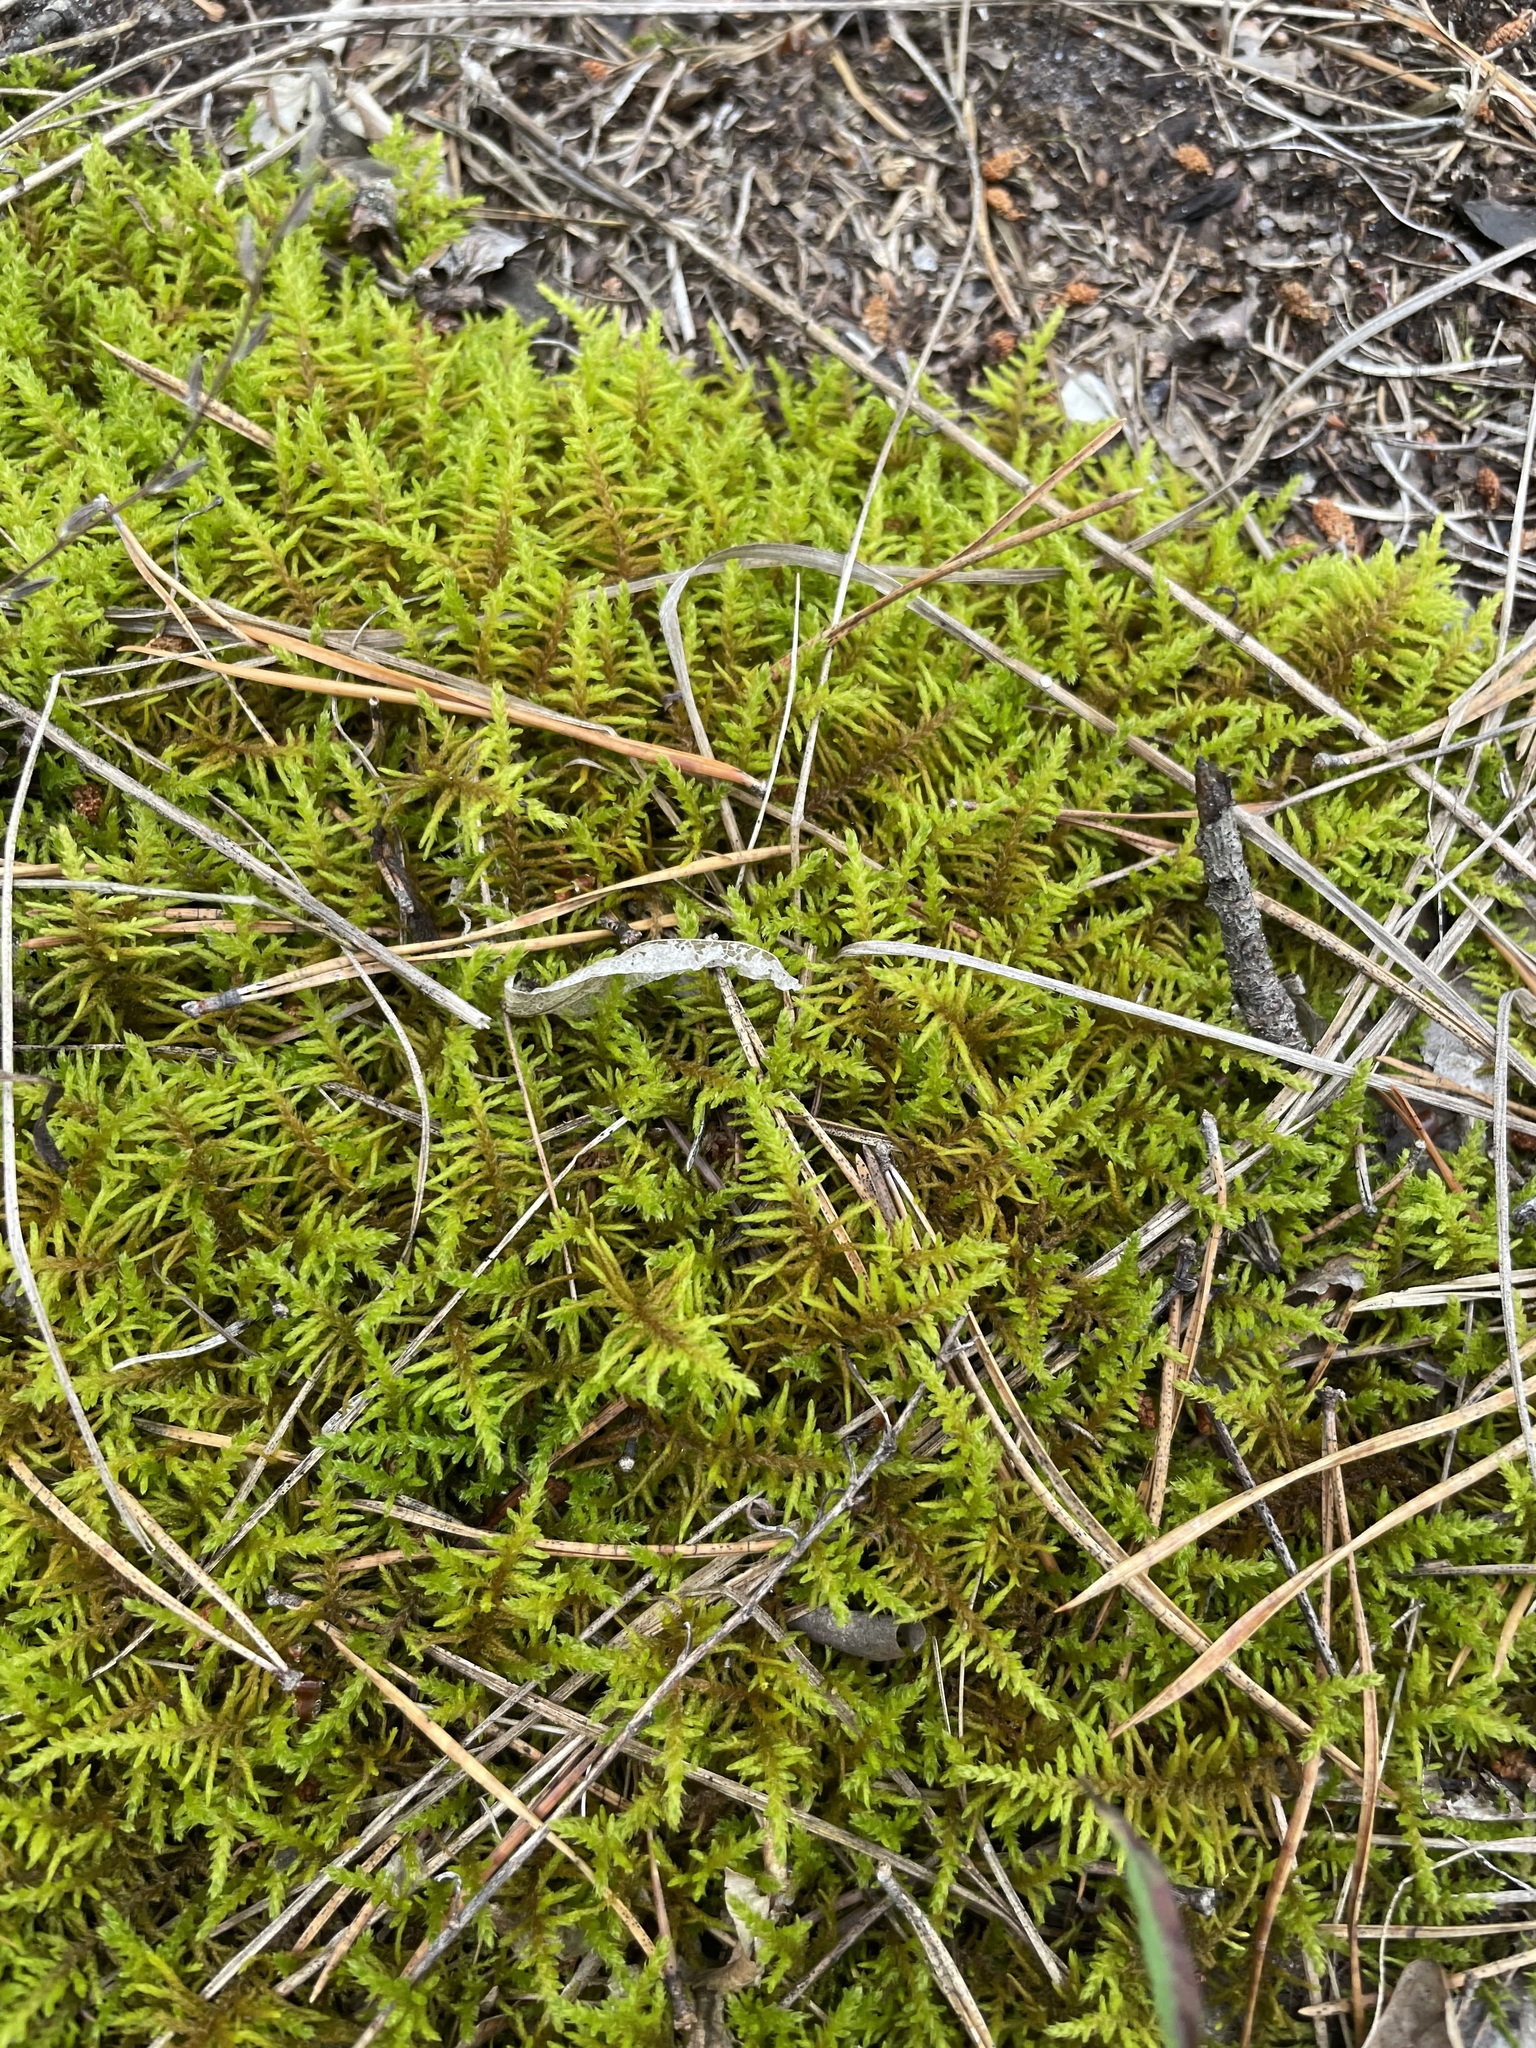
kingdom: Plantae
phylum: Bryophyta
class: Bryopsida
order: Hypnales
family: Thuidiaceae
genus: Abietinella
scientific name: Abietinella abietina
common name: Wiry fern moss
